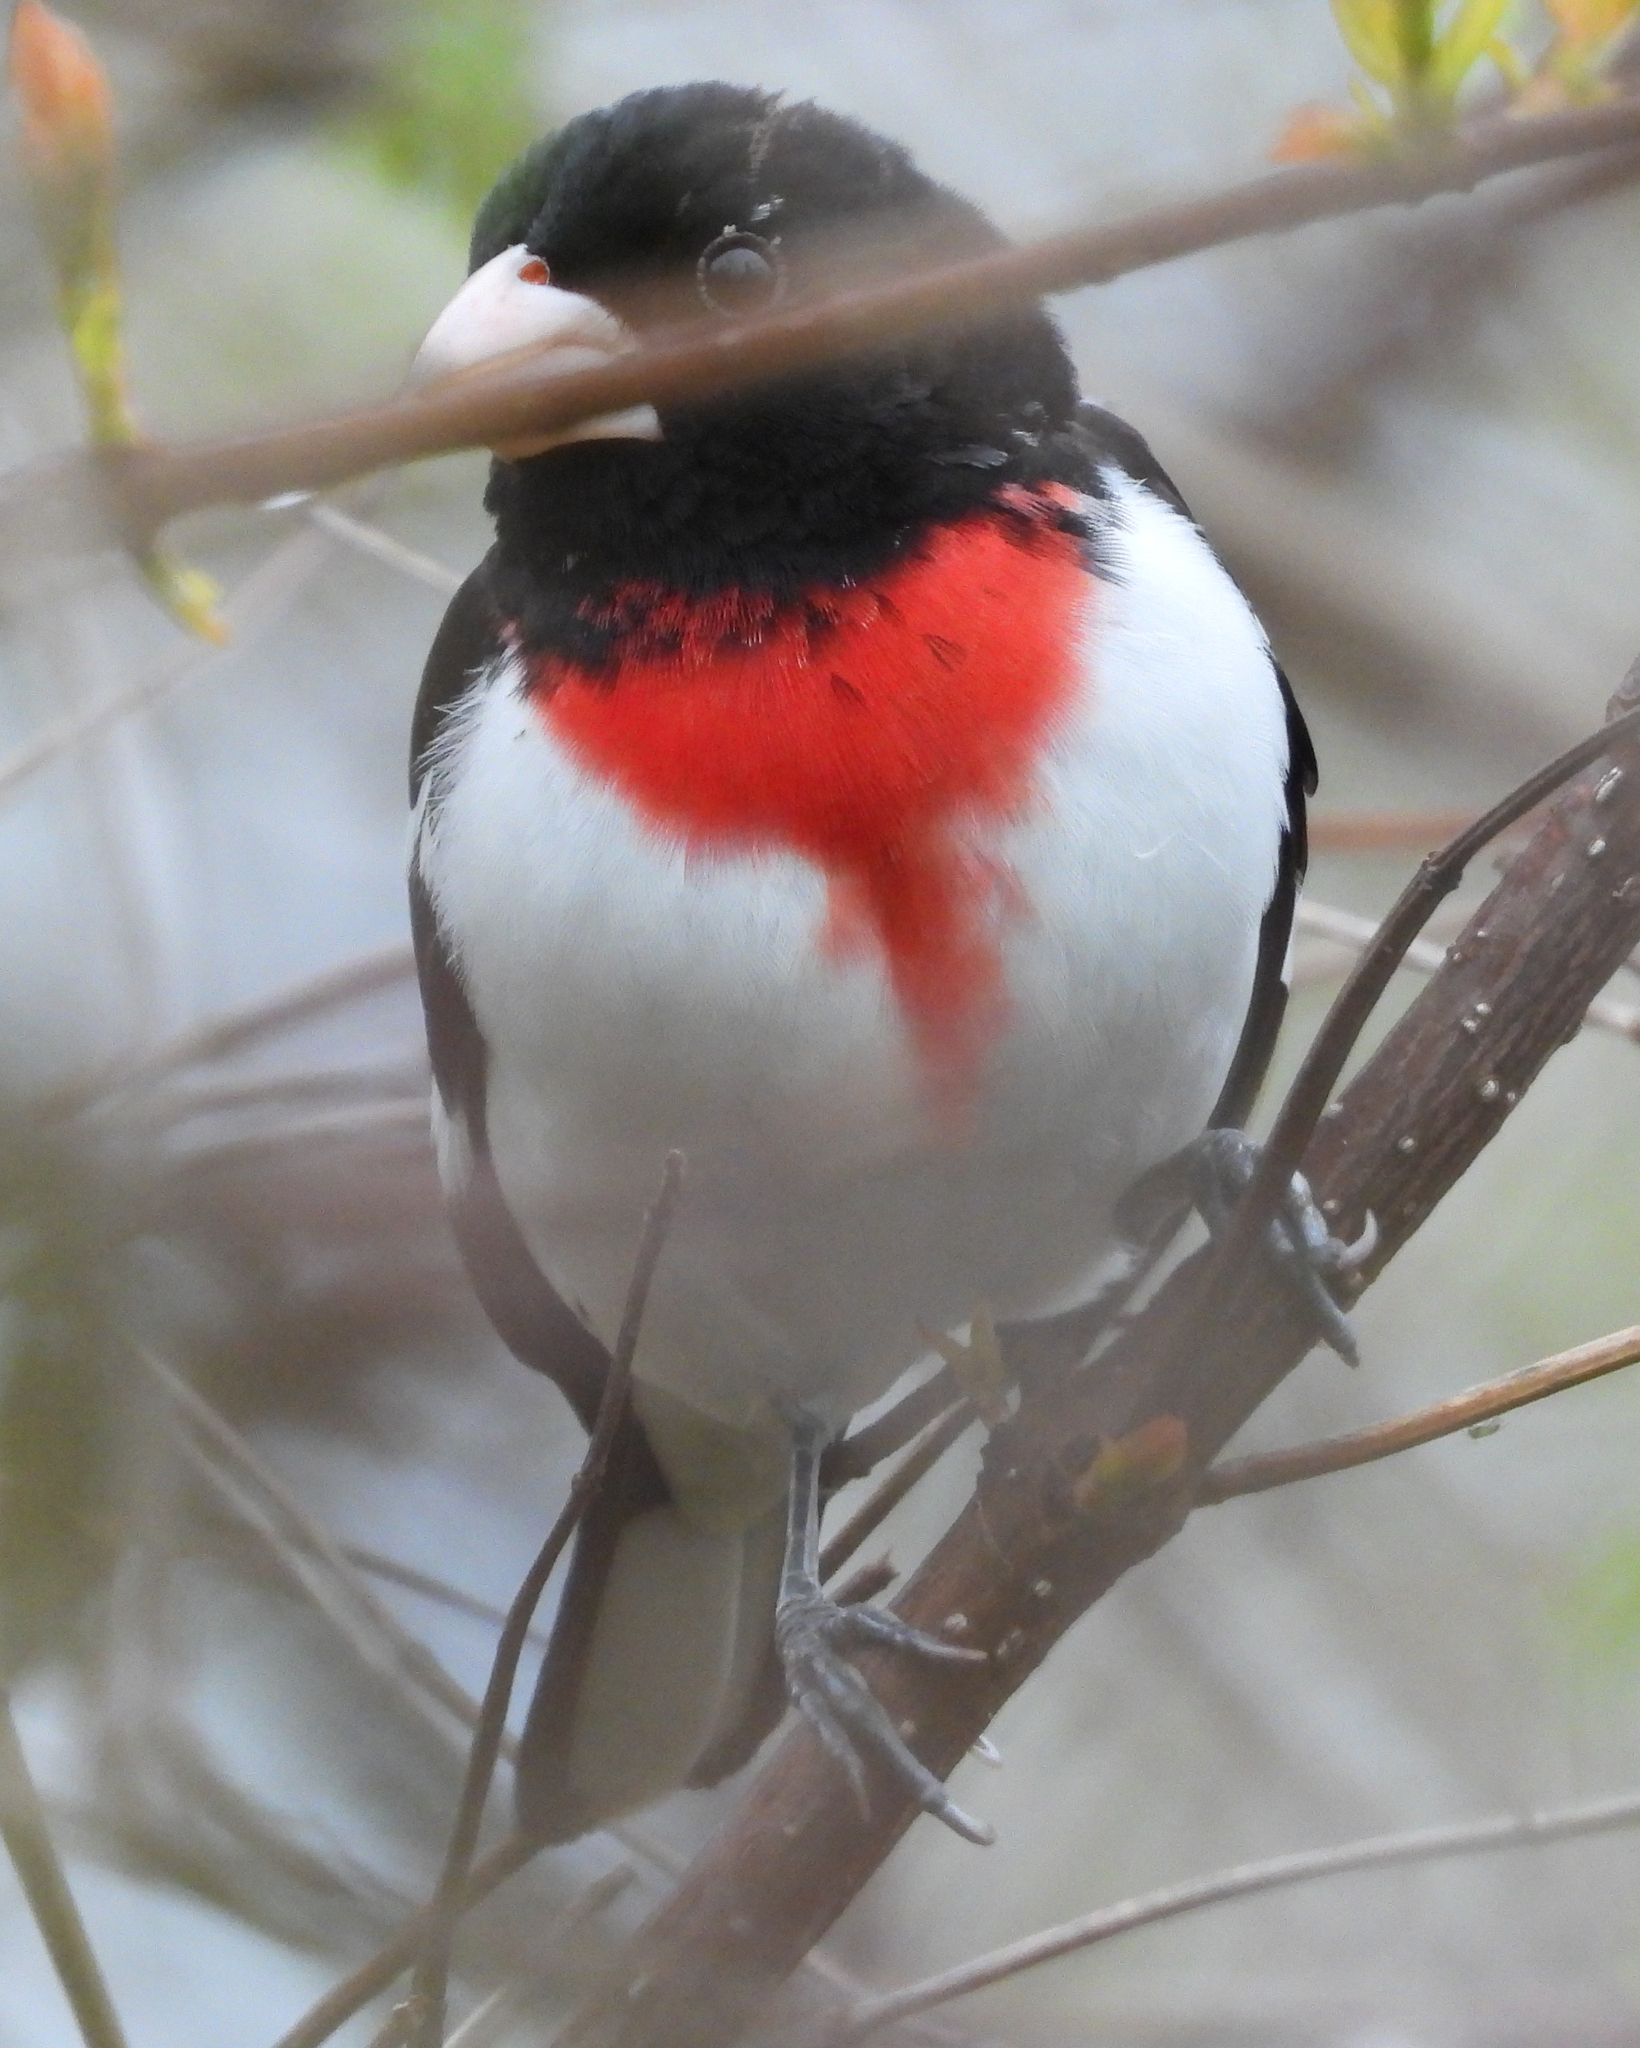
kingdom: Animalia
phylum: Chordata
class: Aves
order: Passeriformes
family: Cardinalidae
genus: Pheucticus
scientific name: Pheucticus ludovicianus
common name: Rose-breasted grosbeak
